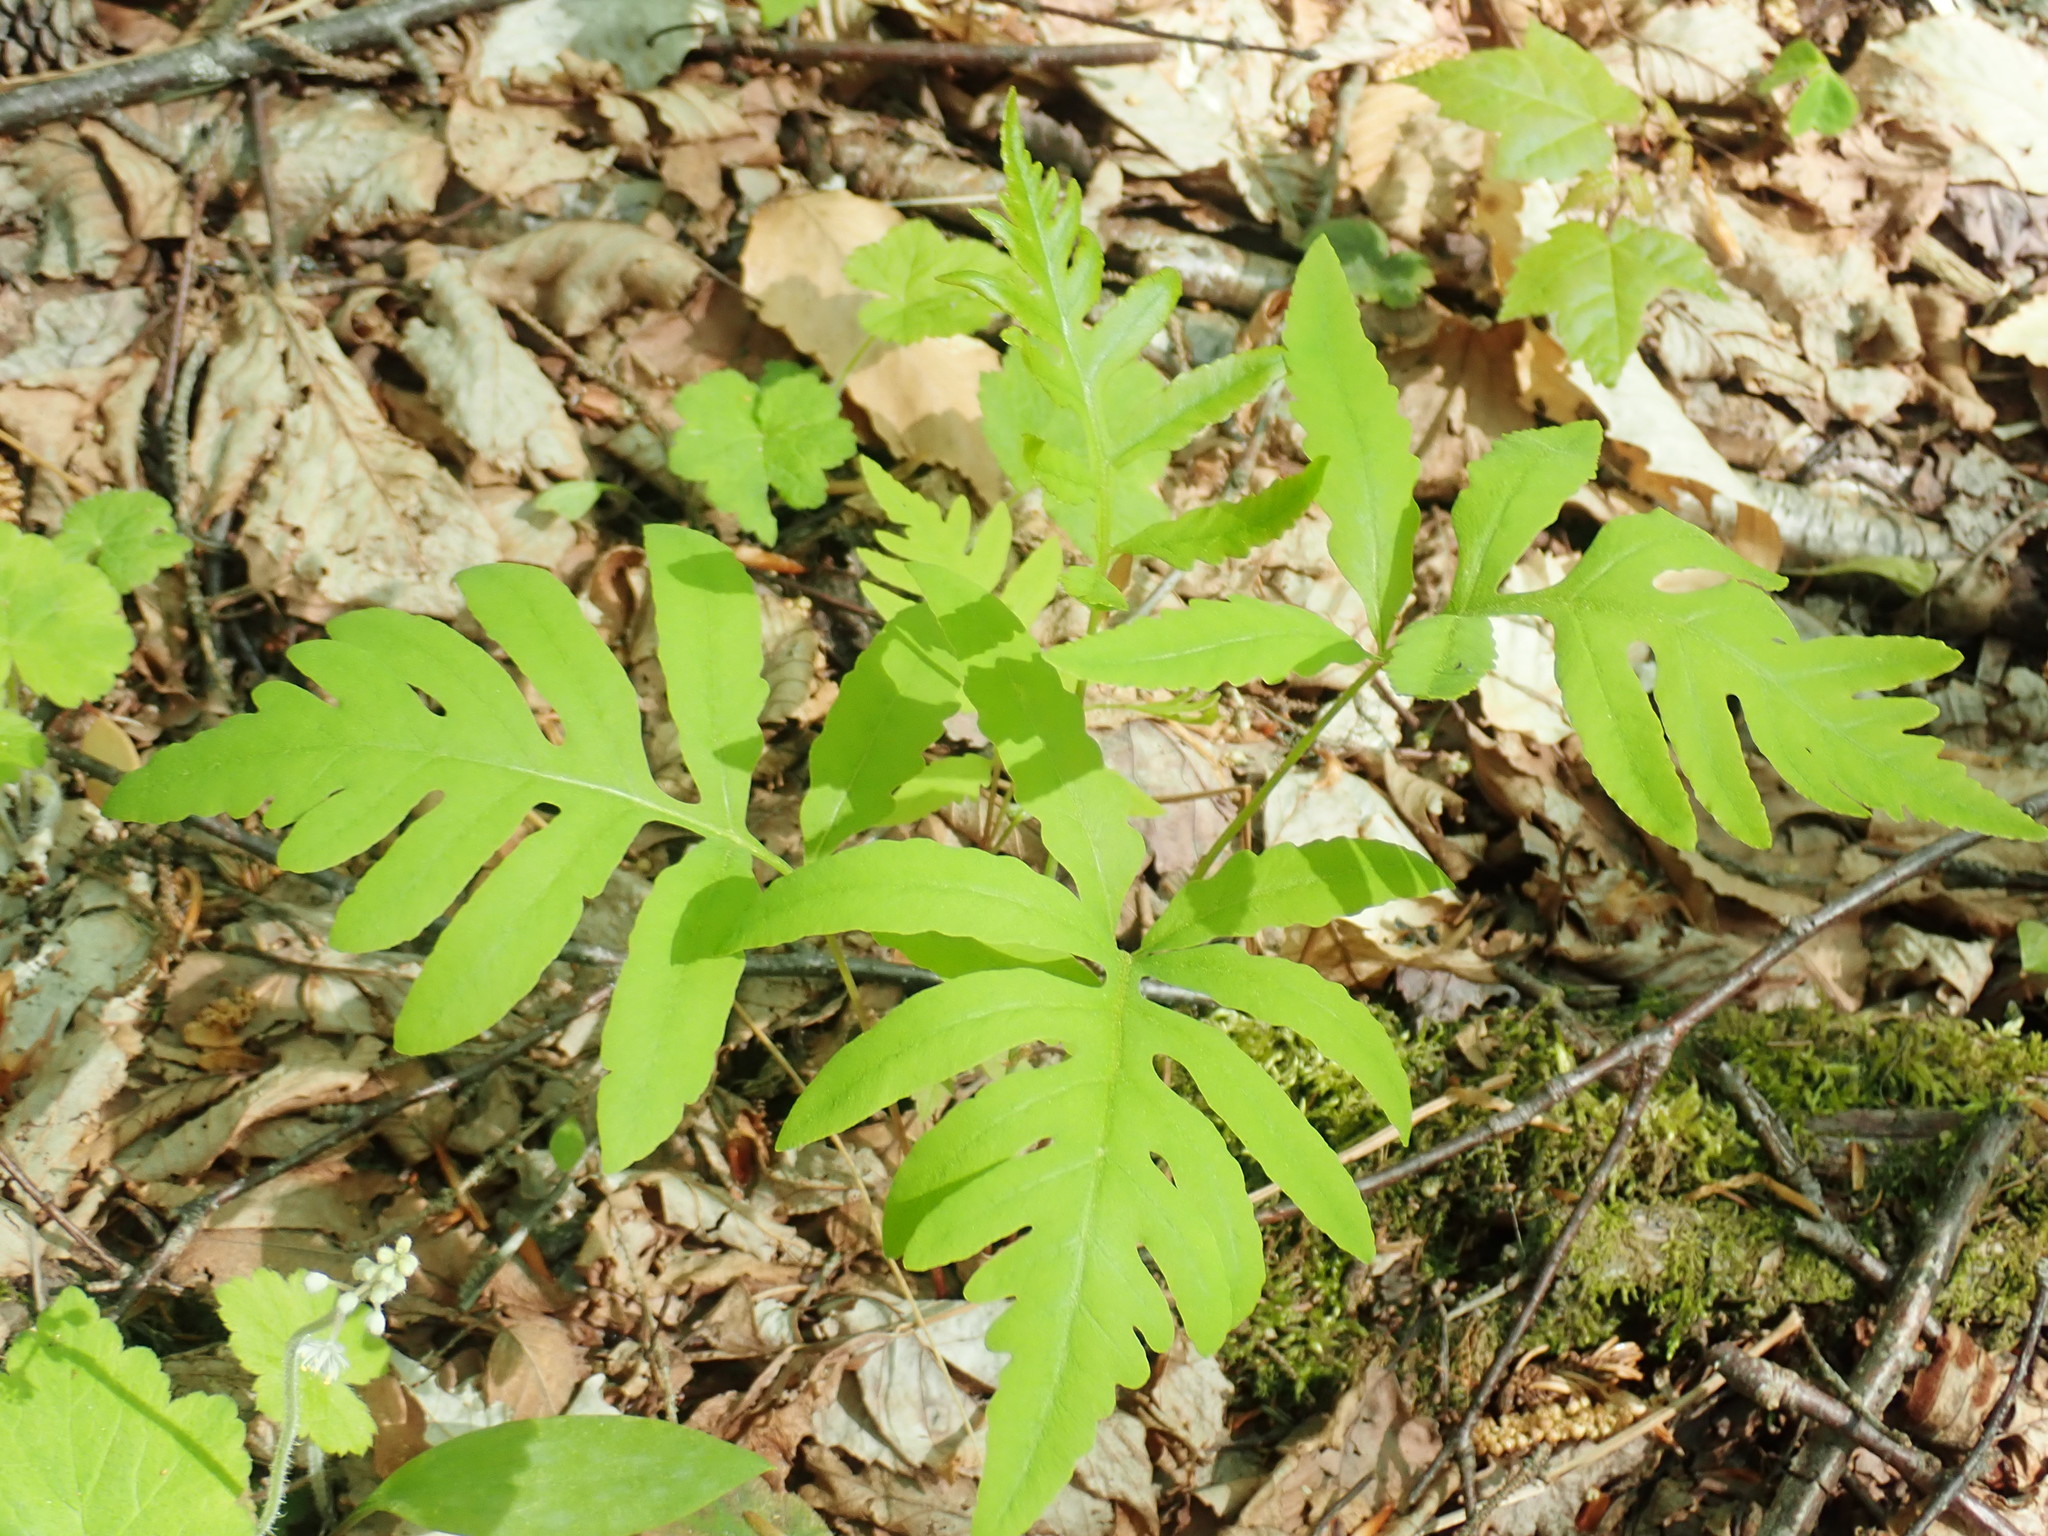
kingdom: Plantae
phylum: Tracheophyta
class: Polypodiopsida
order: Polypodiales
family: Onocleaceae
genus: Onoclea
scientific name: Onoclea sensibilis
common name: Sensitive fern
